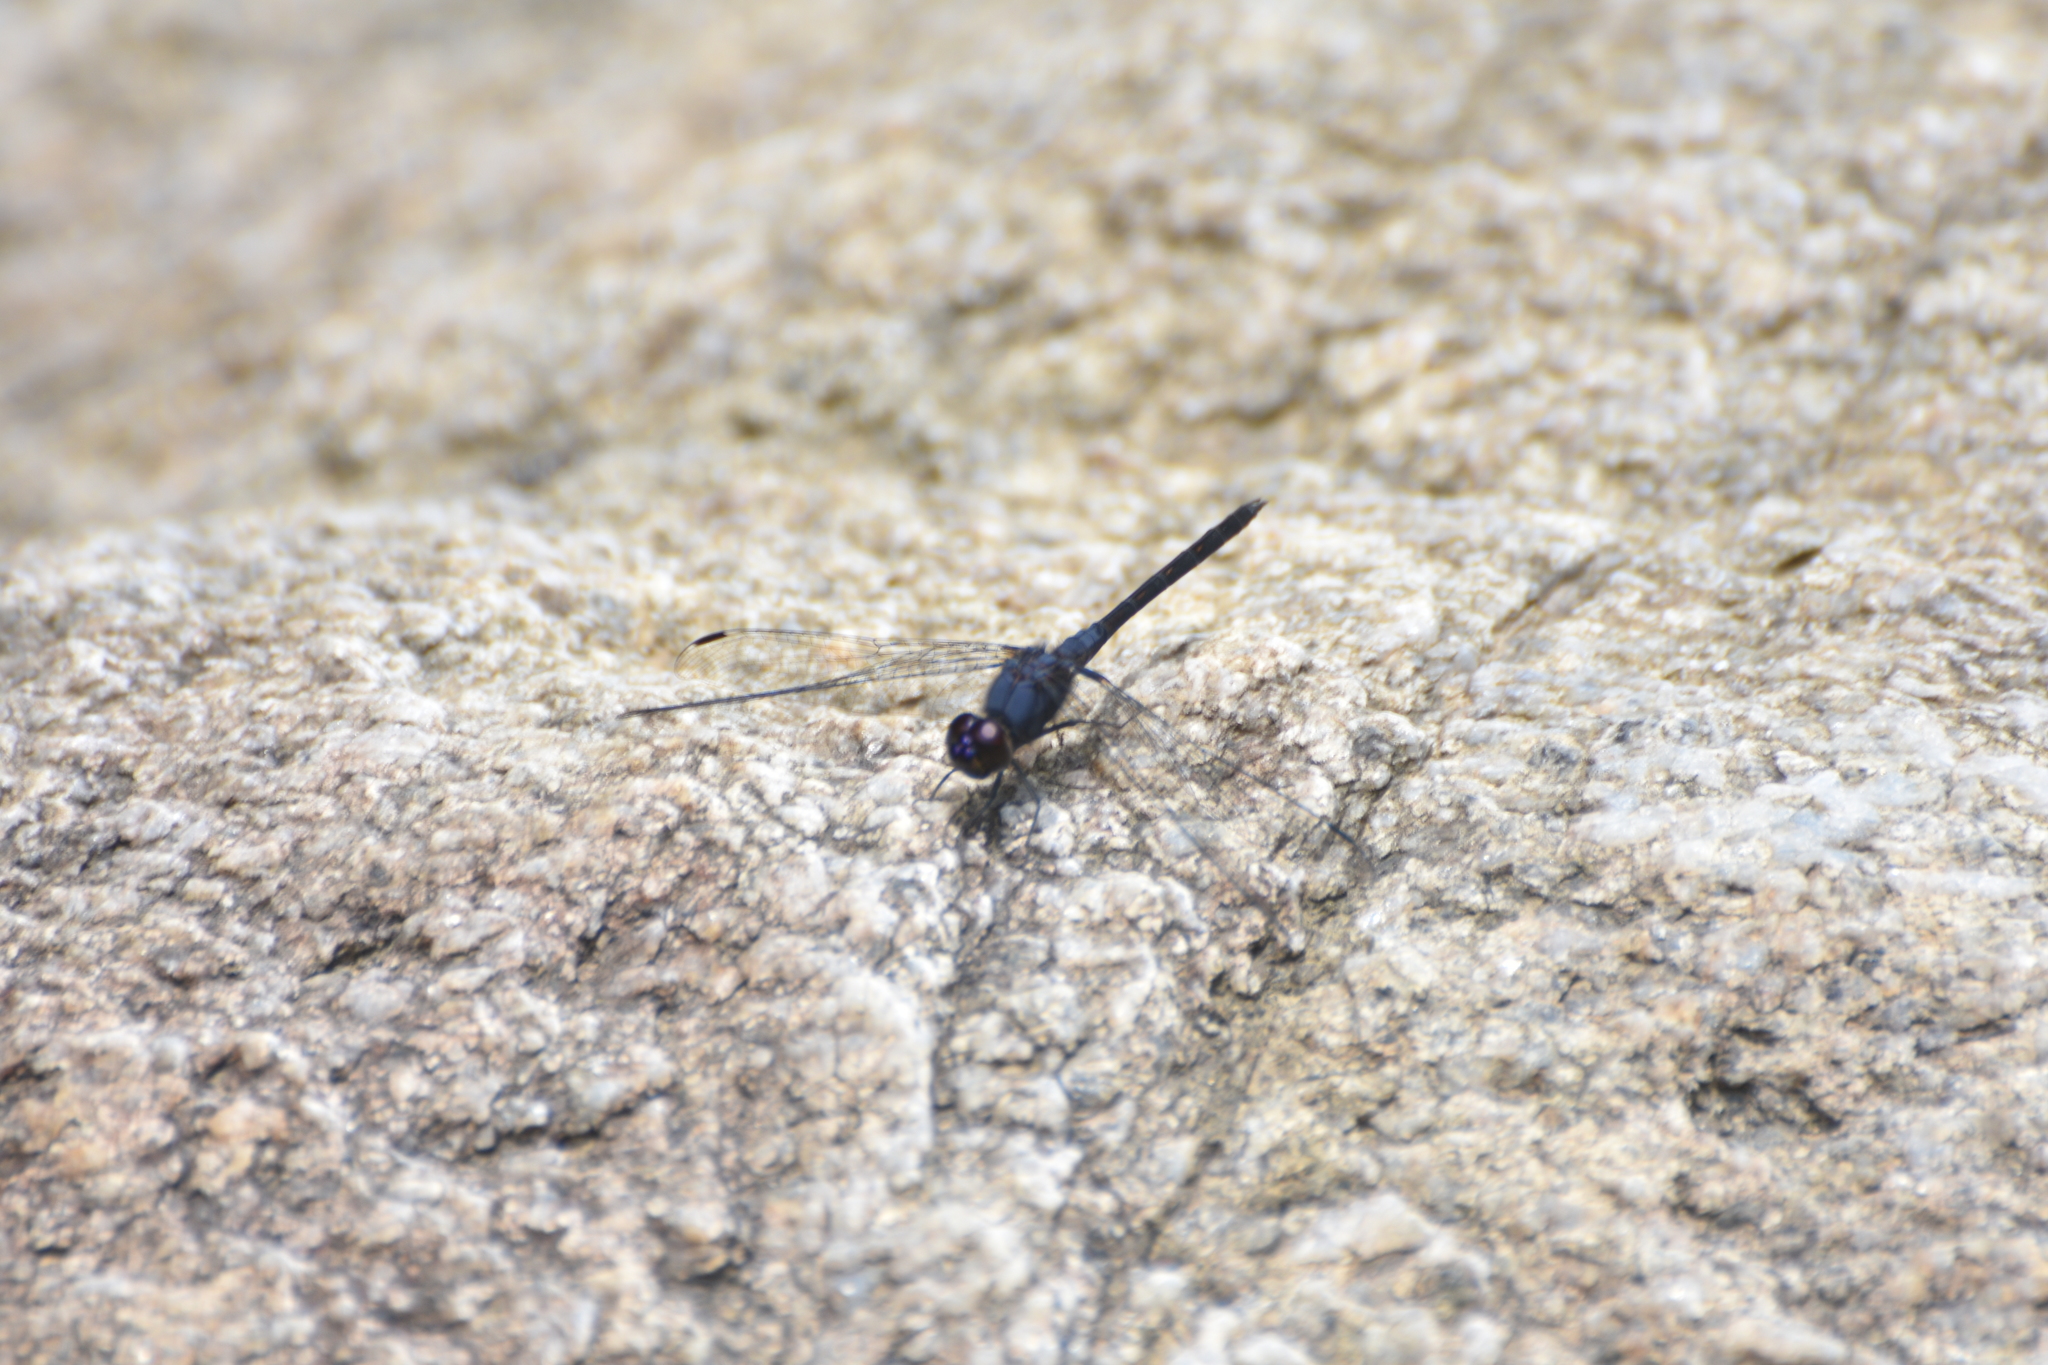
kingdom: Animalia
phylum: Arthropoda
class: Insecta
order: Odonata
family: Libellulidae
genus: Trithemis
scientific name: Trithemis festiva
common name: Indigo dropwing
